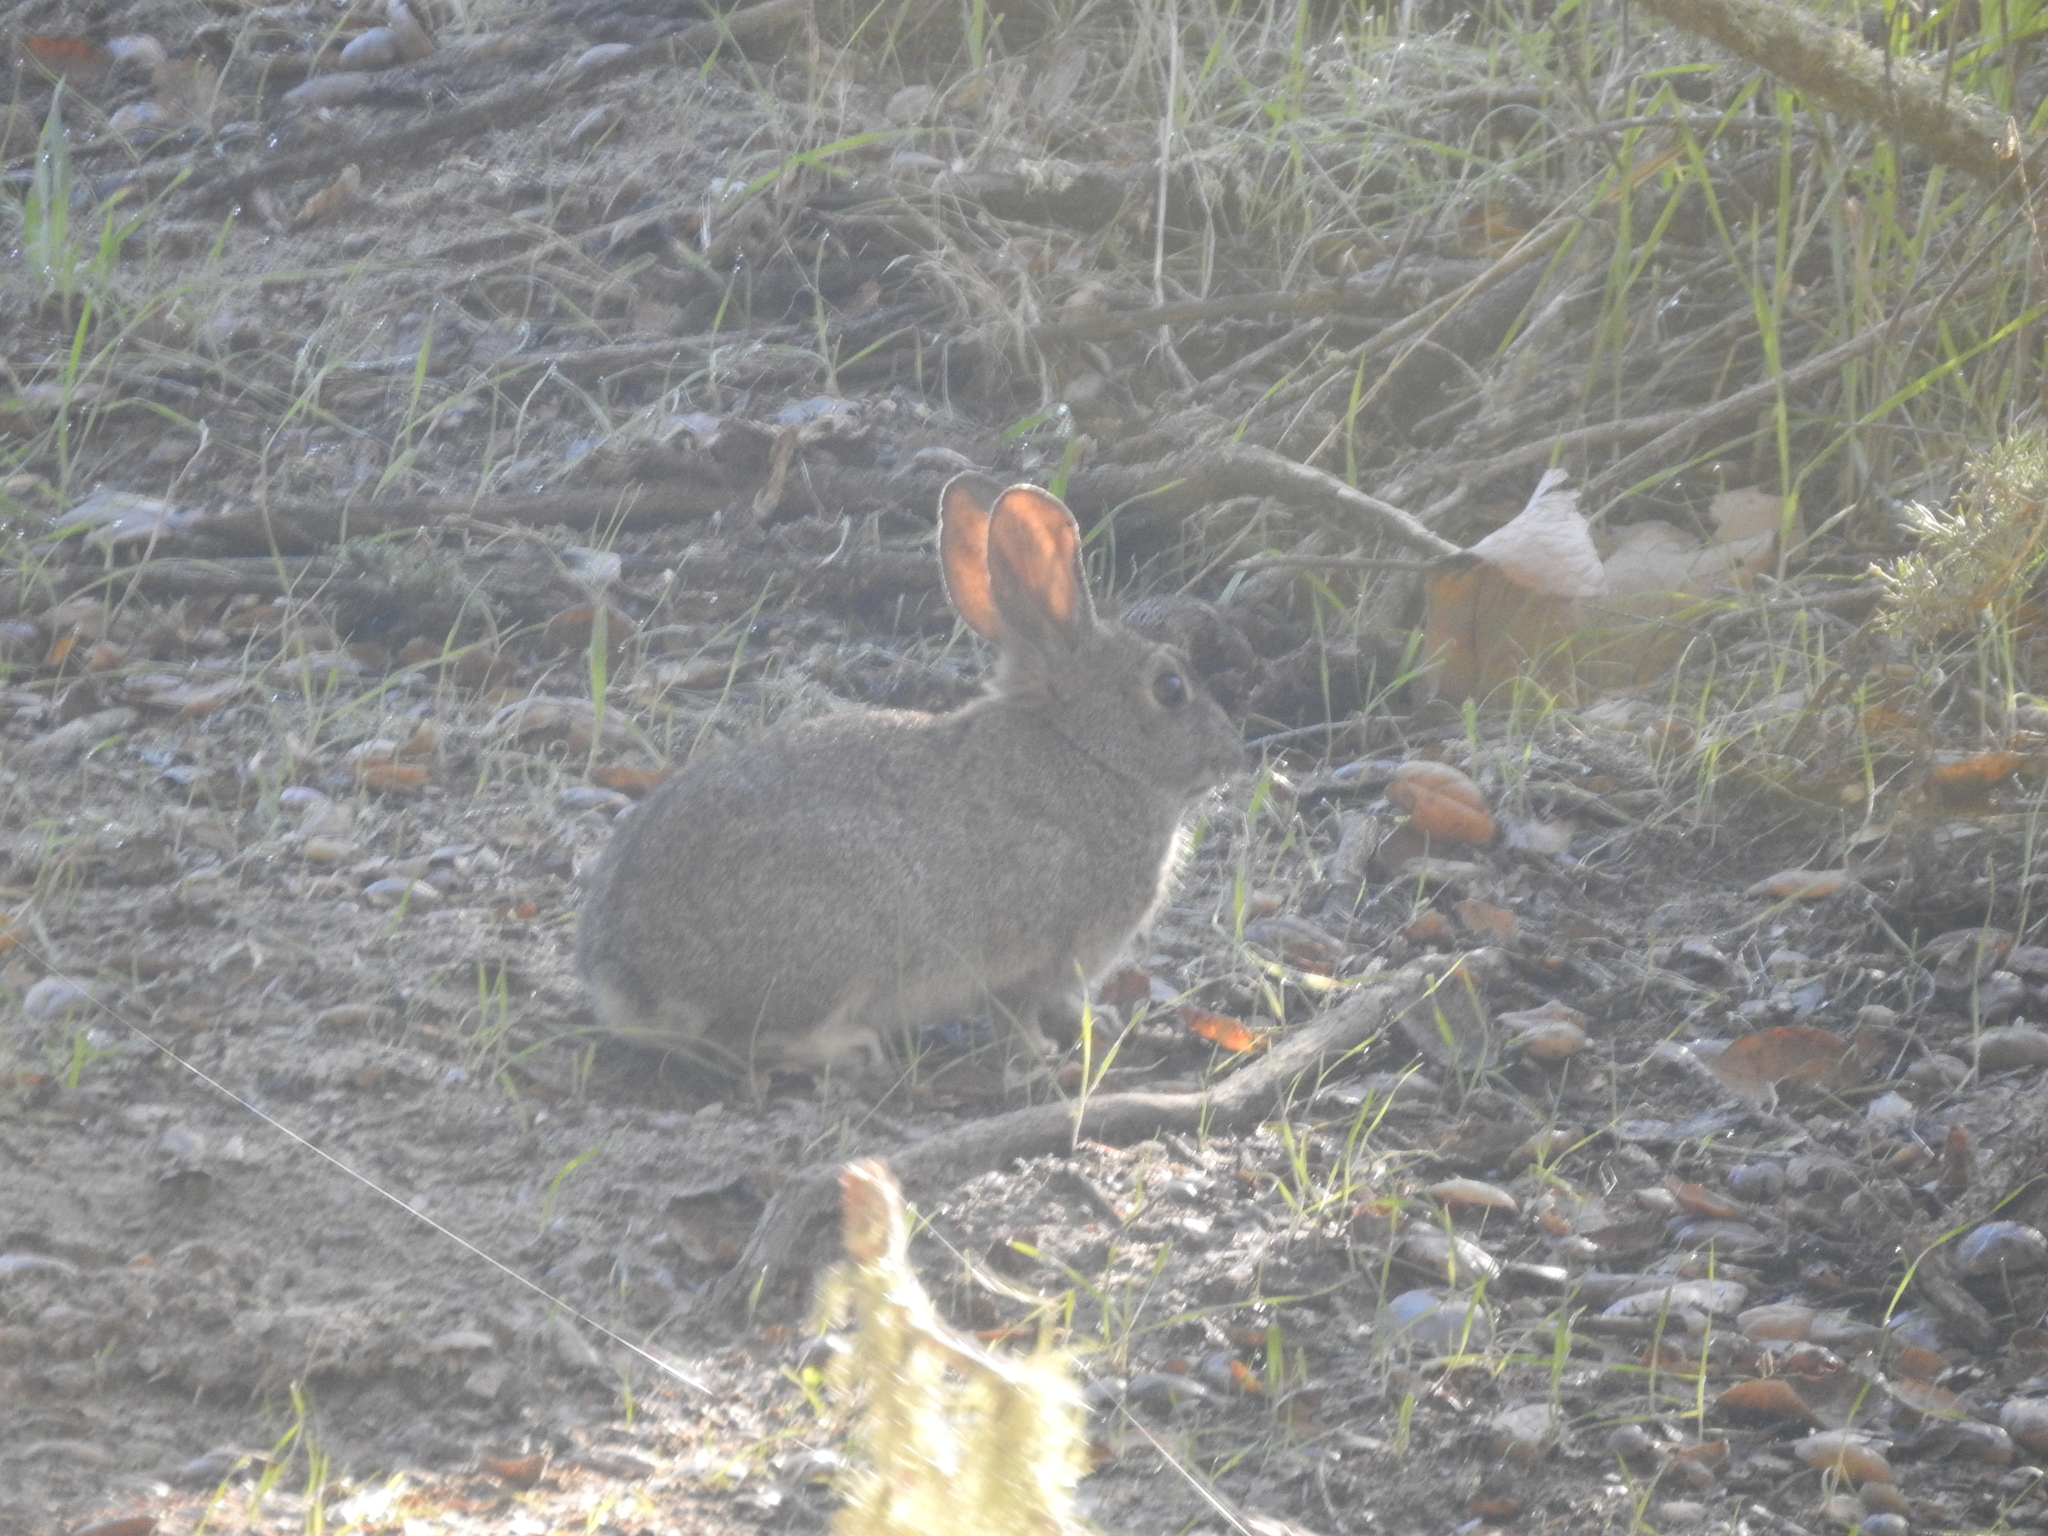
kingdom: Animalia
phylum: Chordata
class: Mammalia
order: Lagomorpha
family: Leporidae
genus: Sylvilagus
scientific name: Sylvilagus bachmani
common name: Brush rabbit
